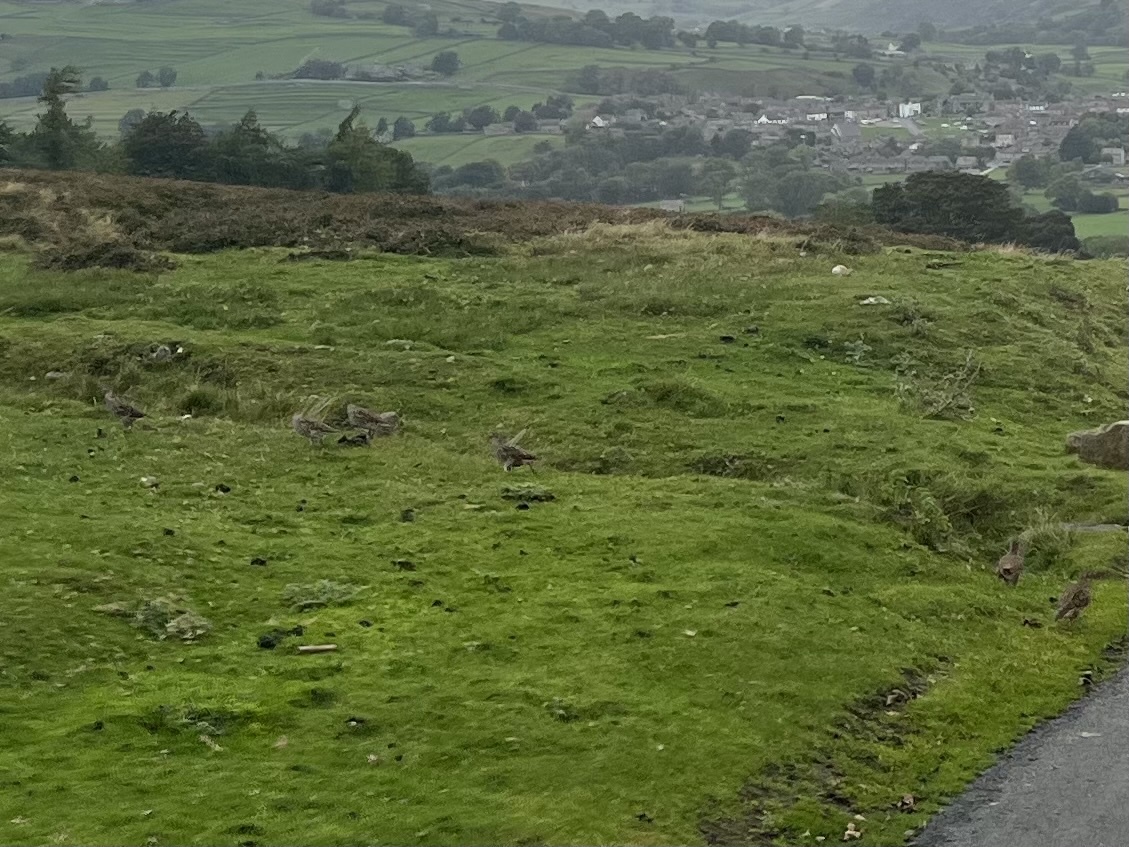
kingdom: Animalia
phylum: Chordata
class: Aves
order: Galliformes
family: Phasianidae
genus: Perdix
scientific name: Perdix perdix
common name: Grey partridge
